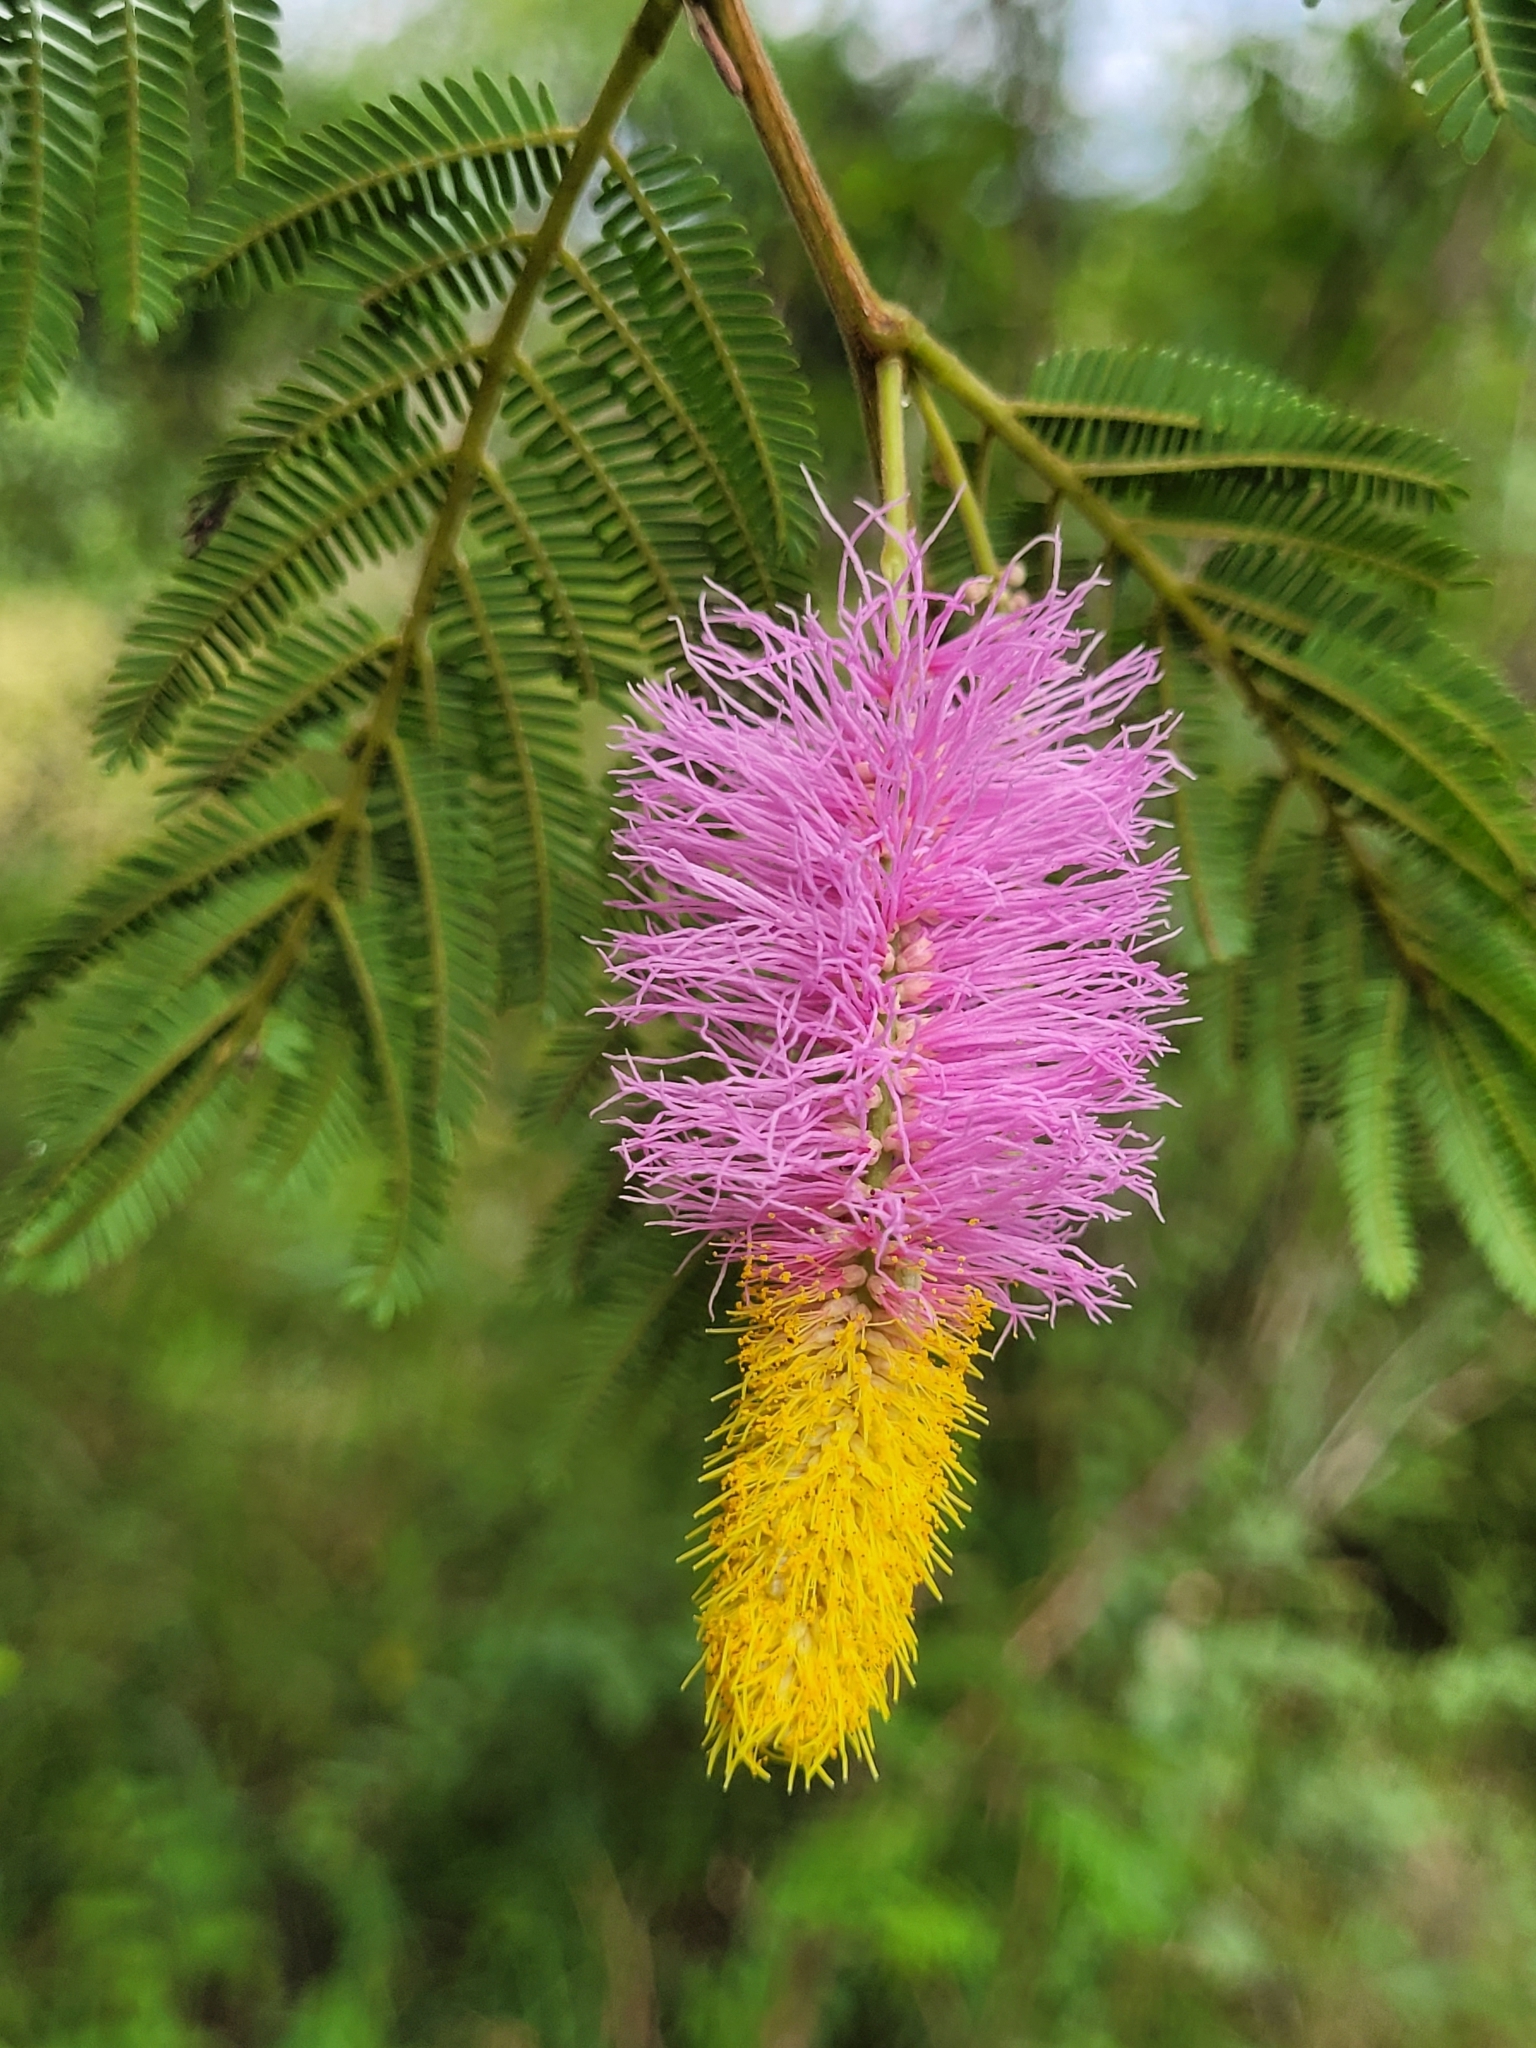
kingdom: Plantae
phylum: Tracheophyta
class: Magnoliopsida
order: Fabales
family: Fabaceae
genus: Dichrostachys
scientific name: Dichrostachys cinerea
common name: Sicklebush
